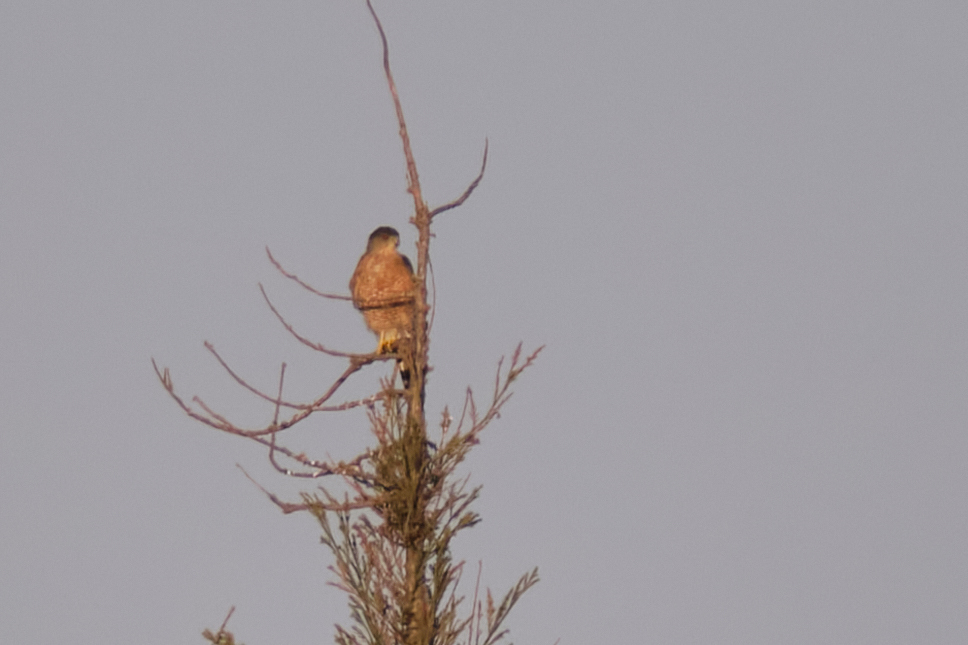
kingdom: Animalia
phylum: Chordata
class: Aves
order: Accipitriformes
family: Accipitridae
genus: Accipiter
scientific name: Accipiter cooperii
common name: Cooper's hawk
